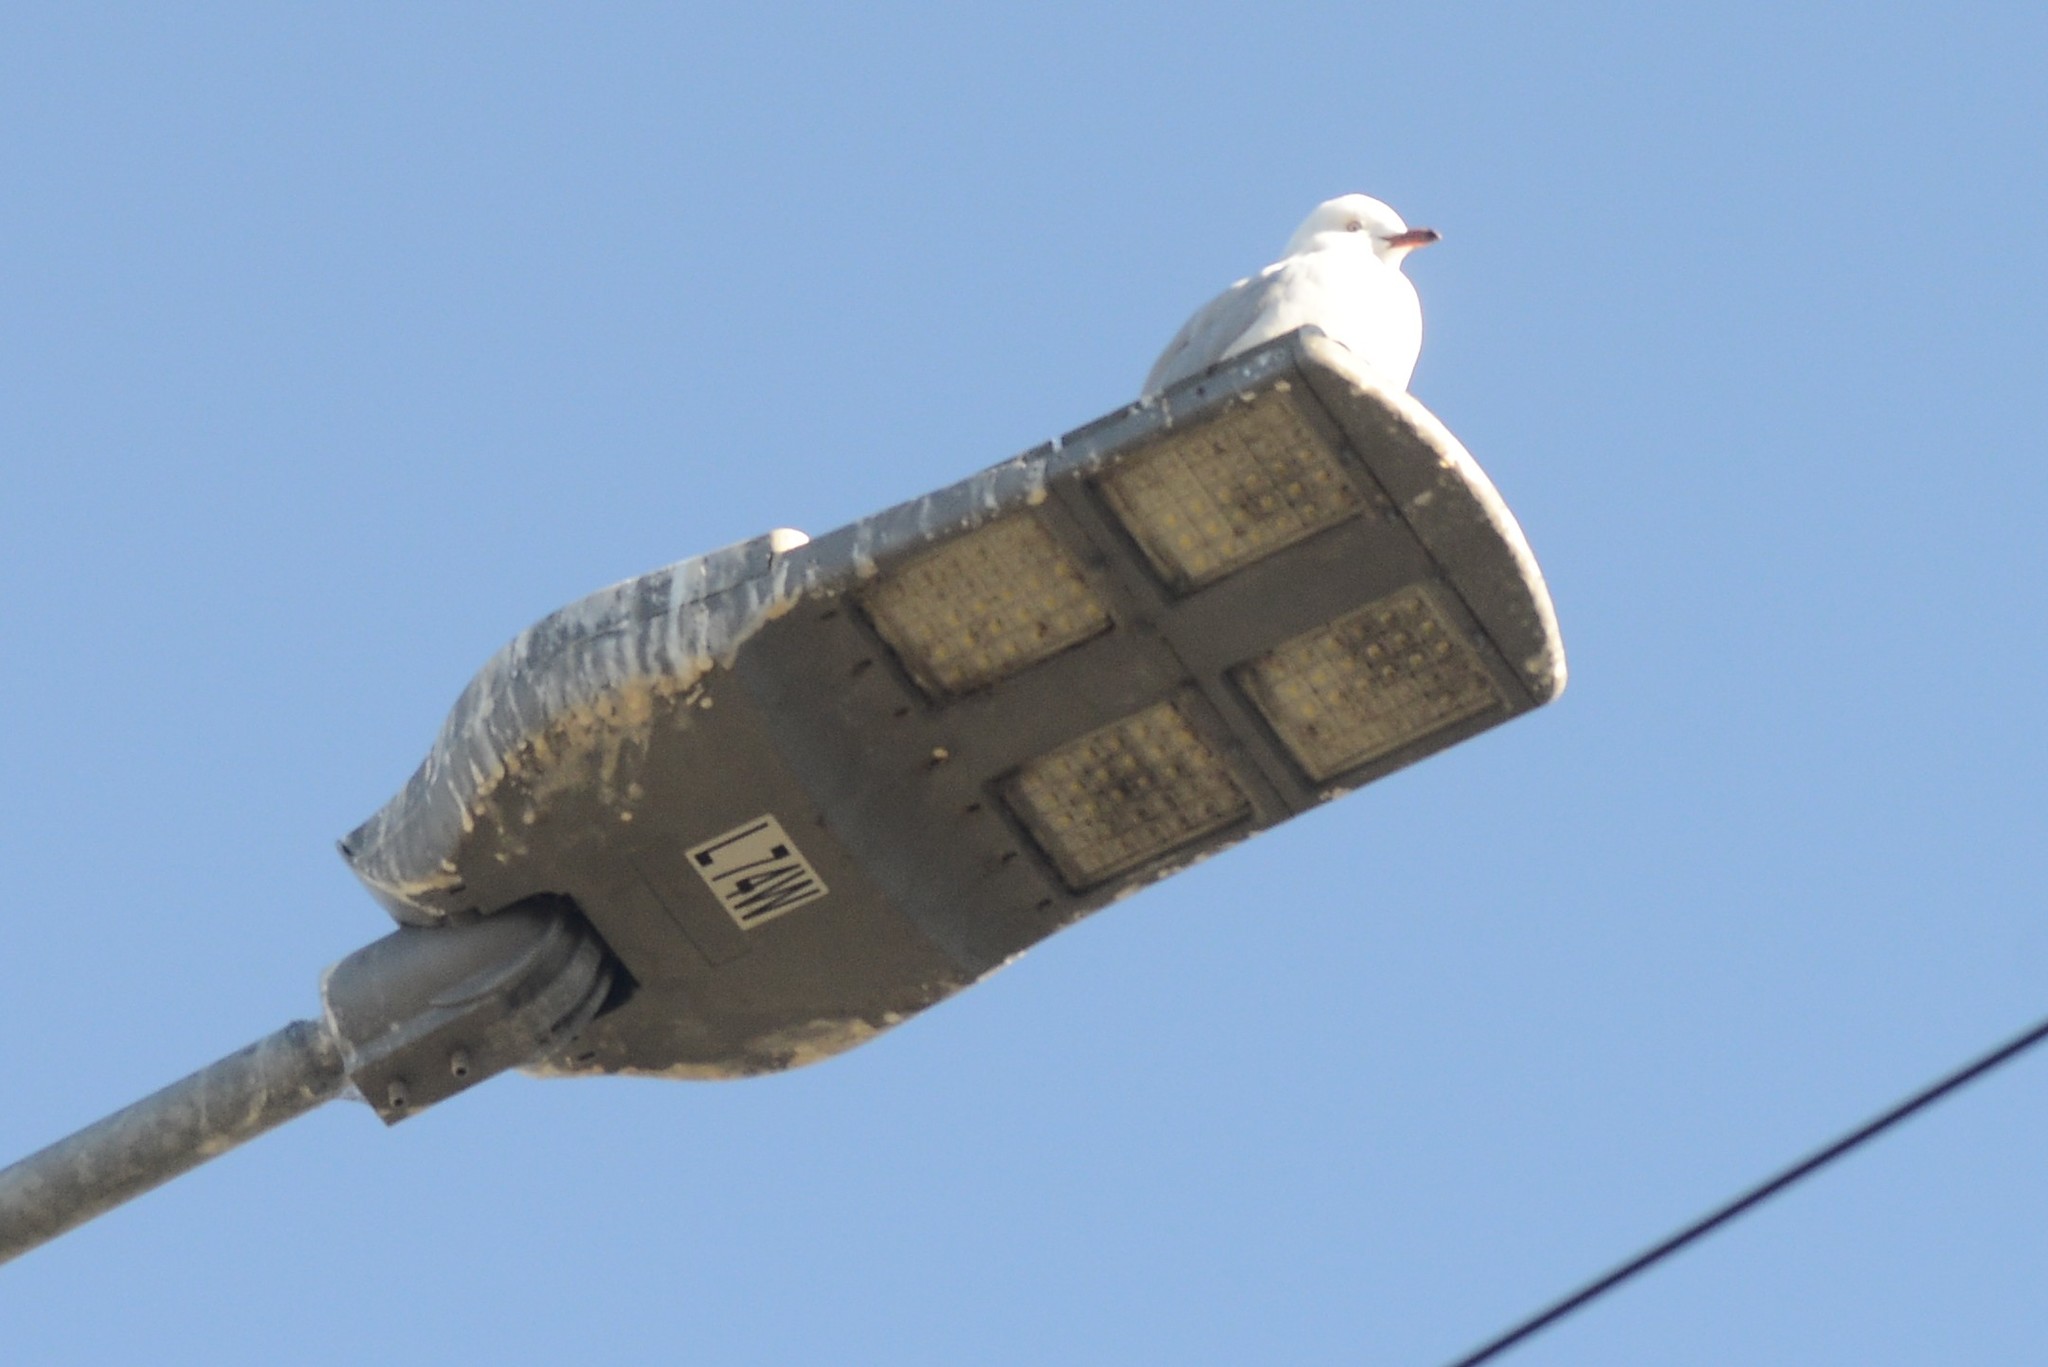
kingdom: Animalia
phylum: Chordata
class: Aves
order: Charadriiformes
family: Laridae
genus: Chroicocephalus
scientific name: Chroicocephalus novaehollandiae
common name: Silver gull
